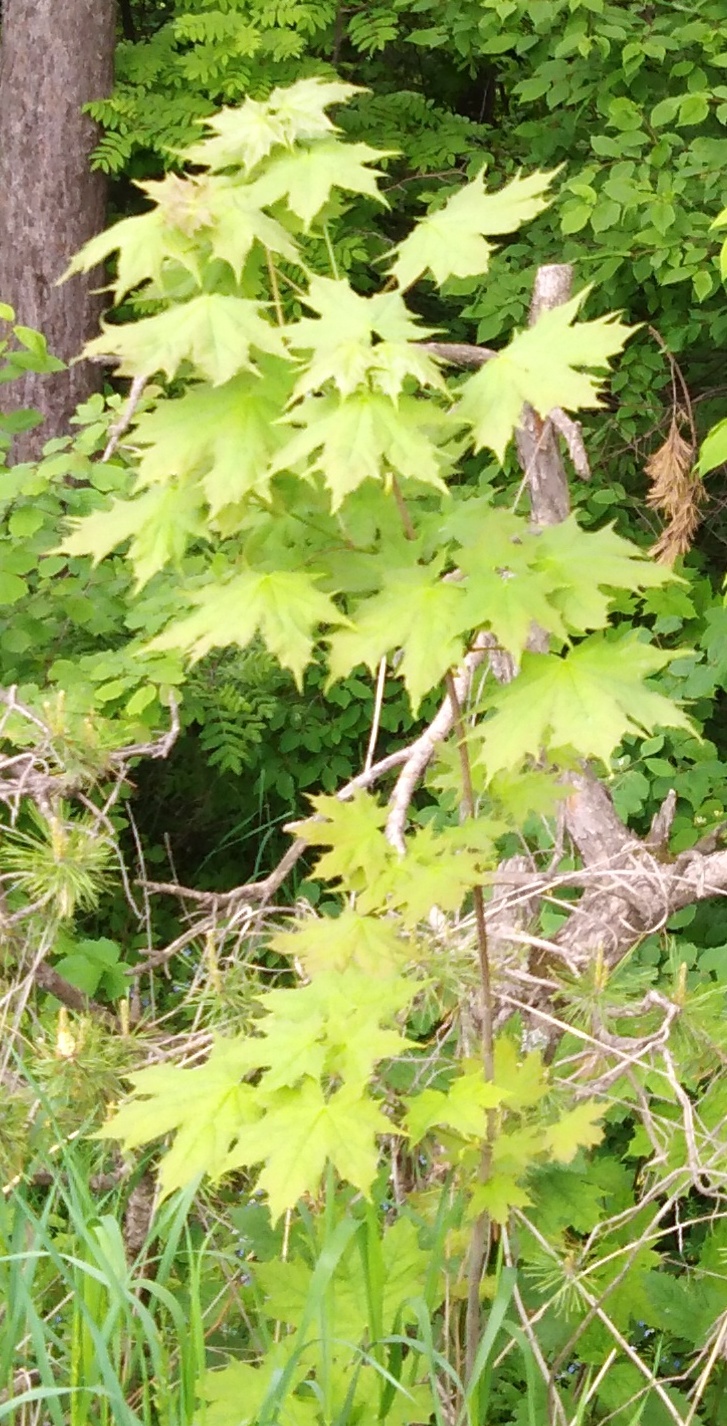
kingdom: Plantae
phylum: Tracheophyta
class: Magnoliopsida
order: Sapindales
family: Sapindaceae
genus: Acer
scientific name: Acer platanoides
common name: Norway maple
